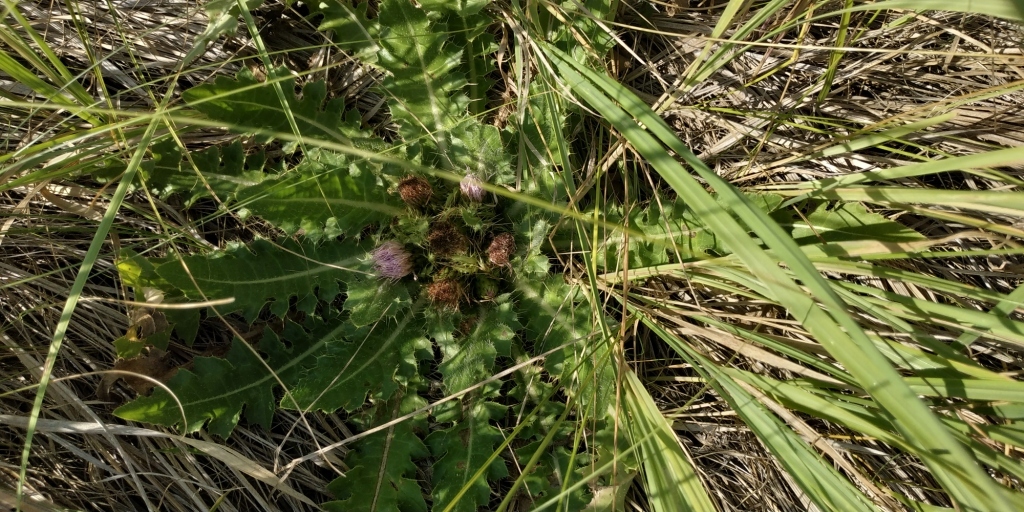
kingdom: Plantae
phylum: Tracheophyta
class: Magnoliopsida
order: Asterales
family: Asteraceae
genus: Cirsium
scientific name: Cirsium esculentum
